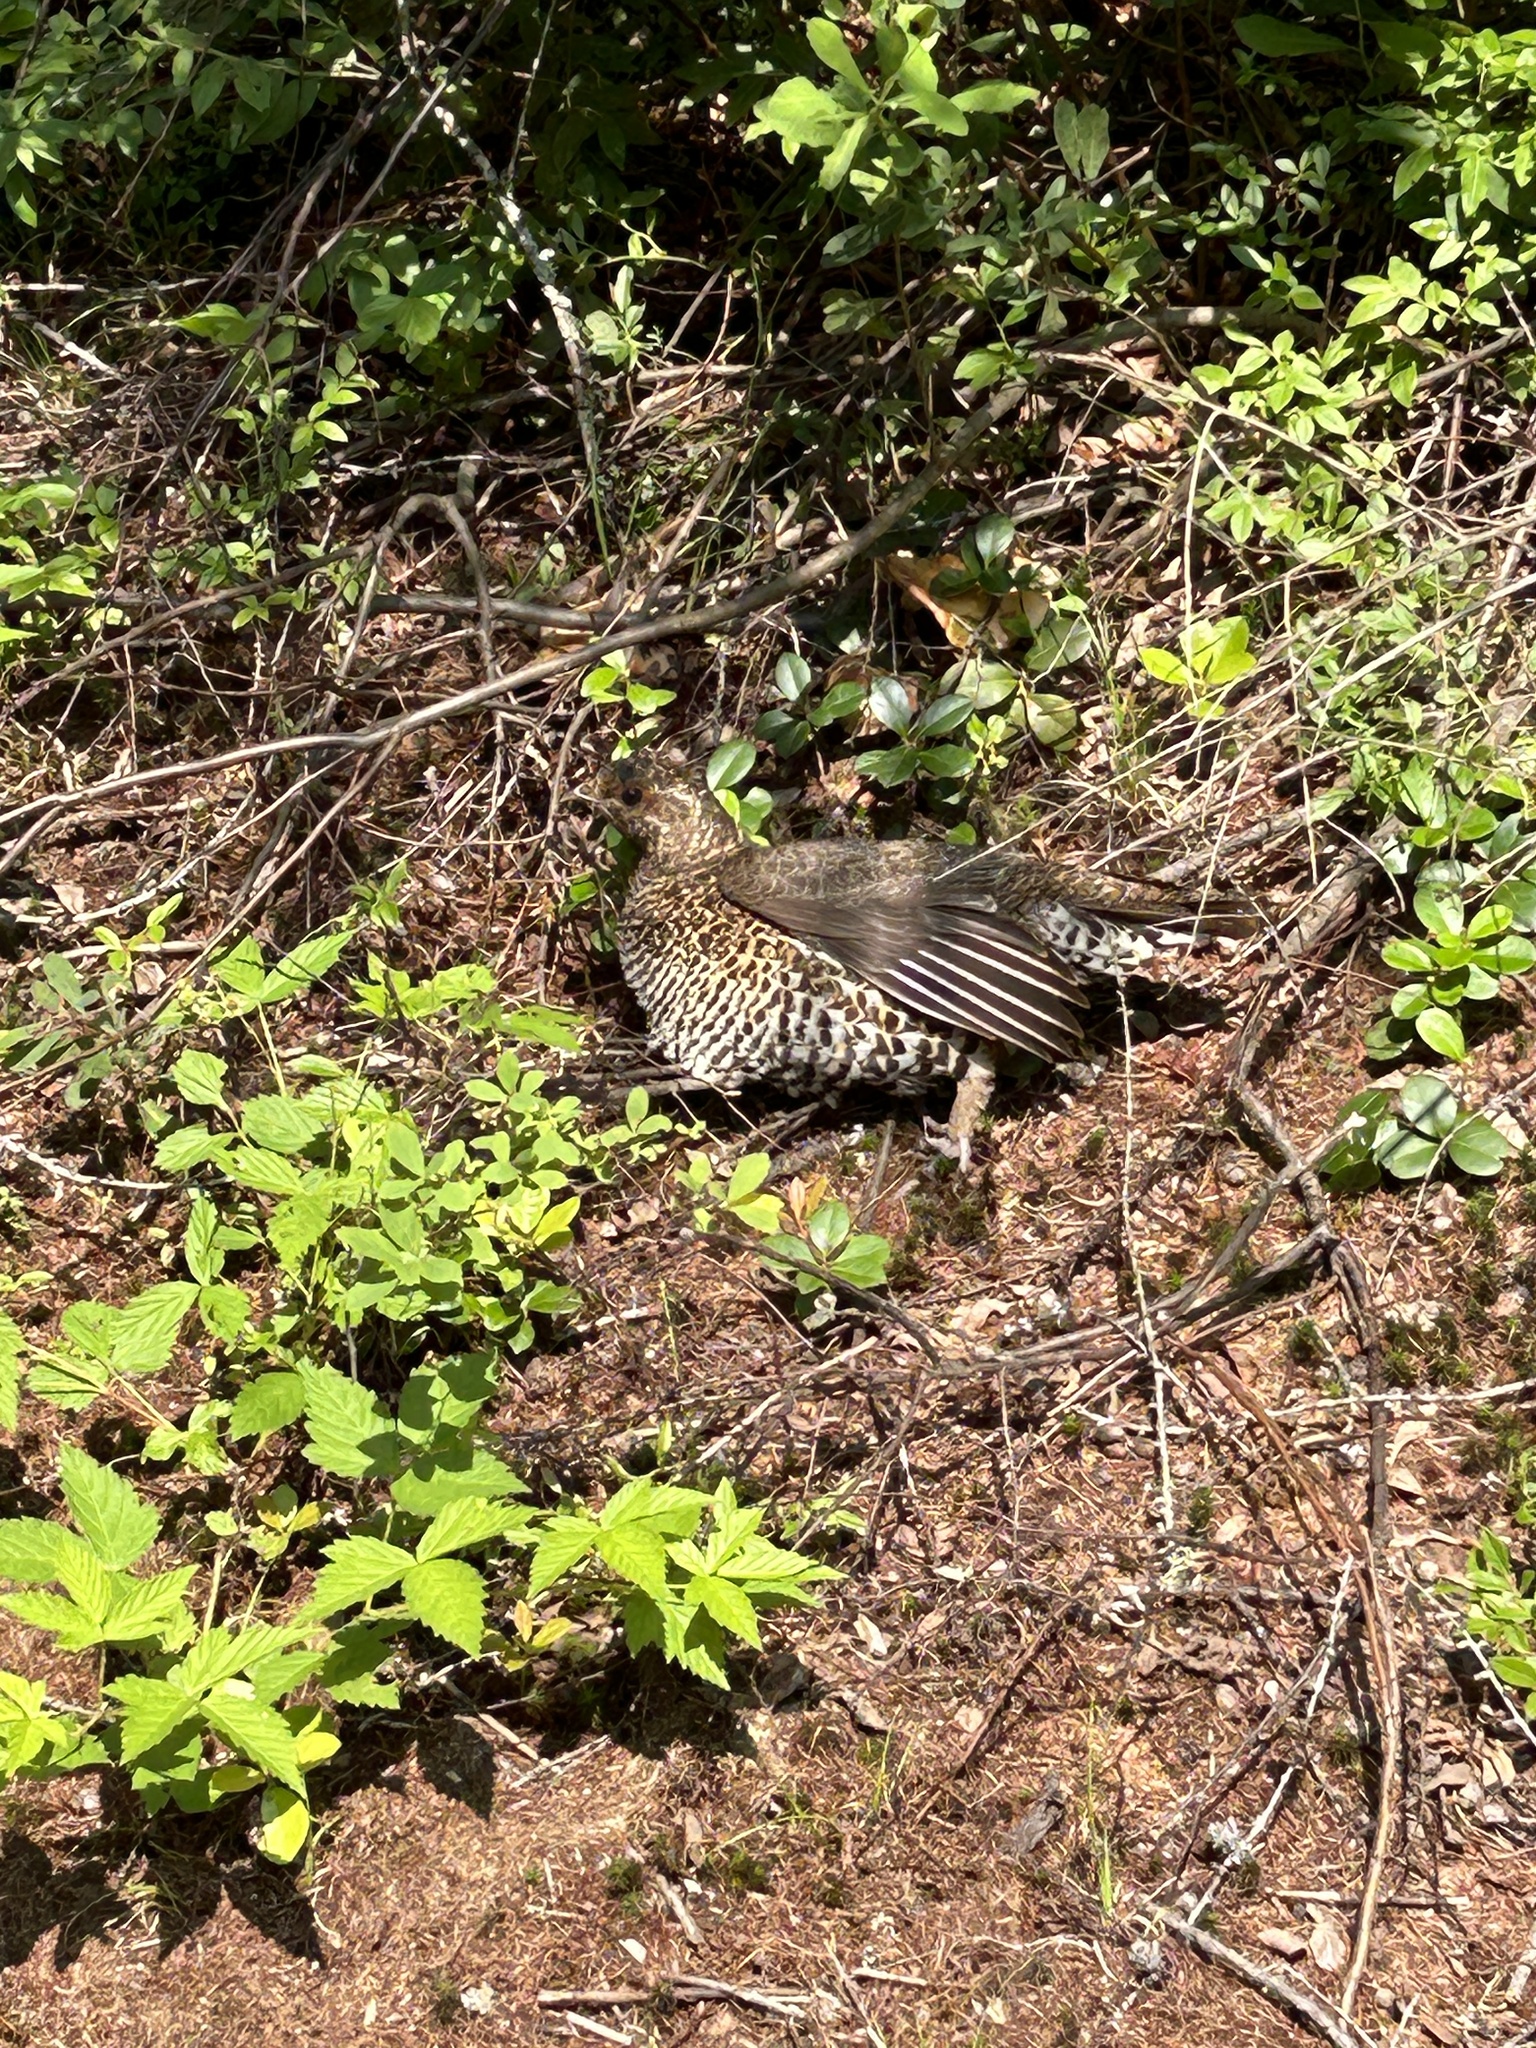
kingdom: Animalia
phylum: Chordata
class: Aves
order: Galliformes
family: Phasianidae
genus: Canachites
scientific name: Canachites canadensis
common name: Spruce grouse
